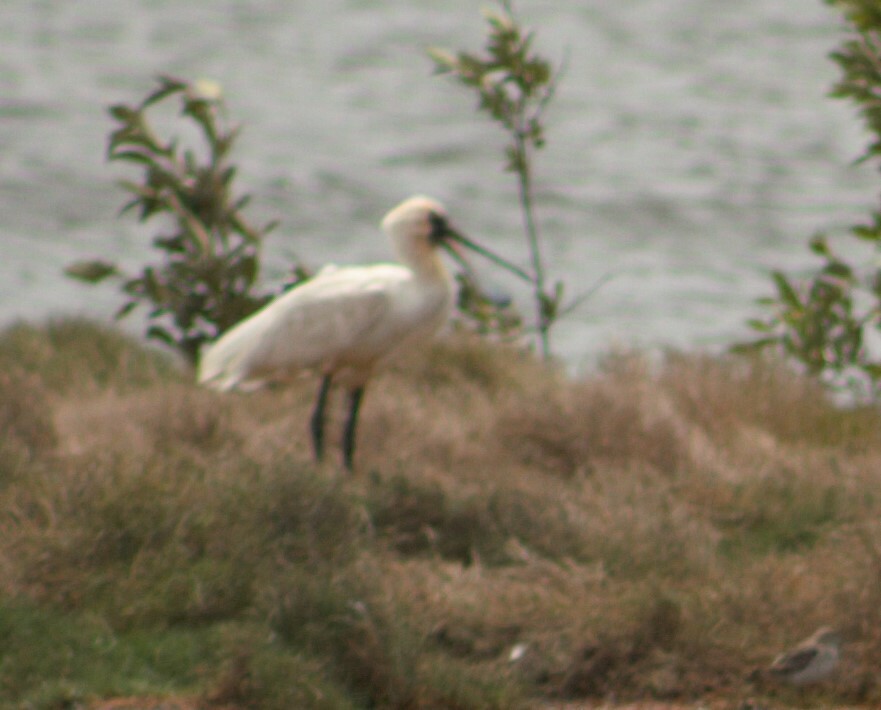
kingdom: Animalia
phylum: Chordata
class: Aves
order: Pelecaniformes
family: Threskiornithidae
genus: Platalea
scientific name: Platalea regia
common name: Royal spoonbill
